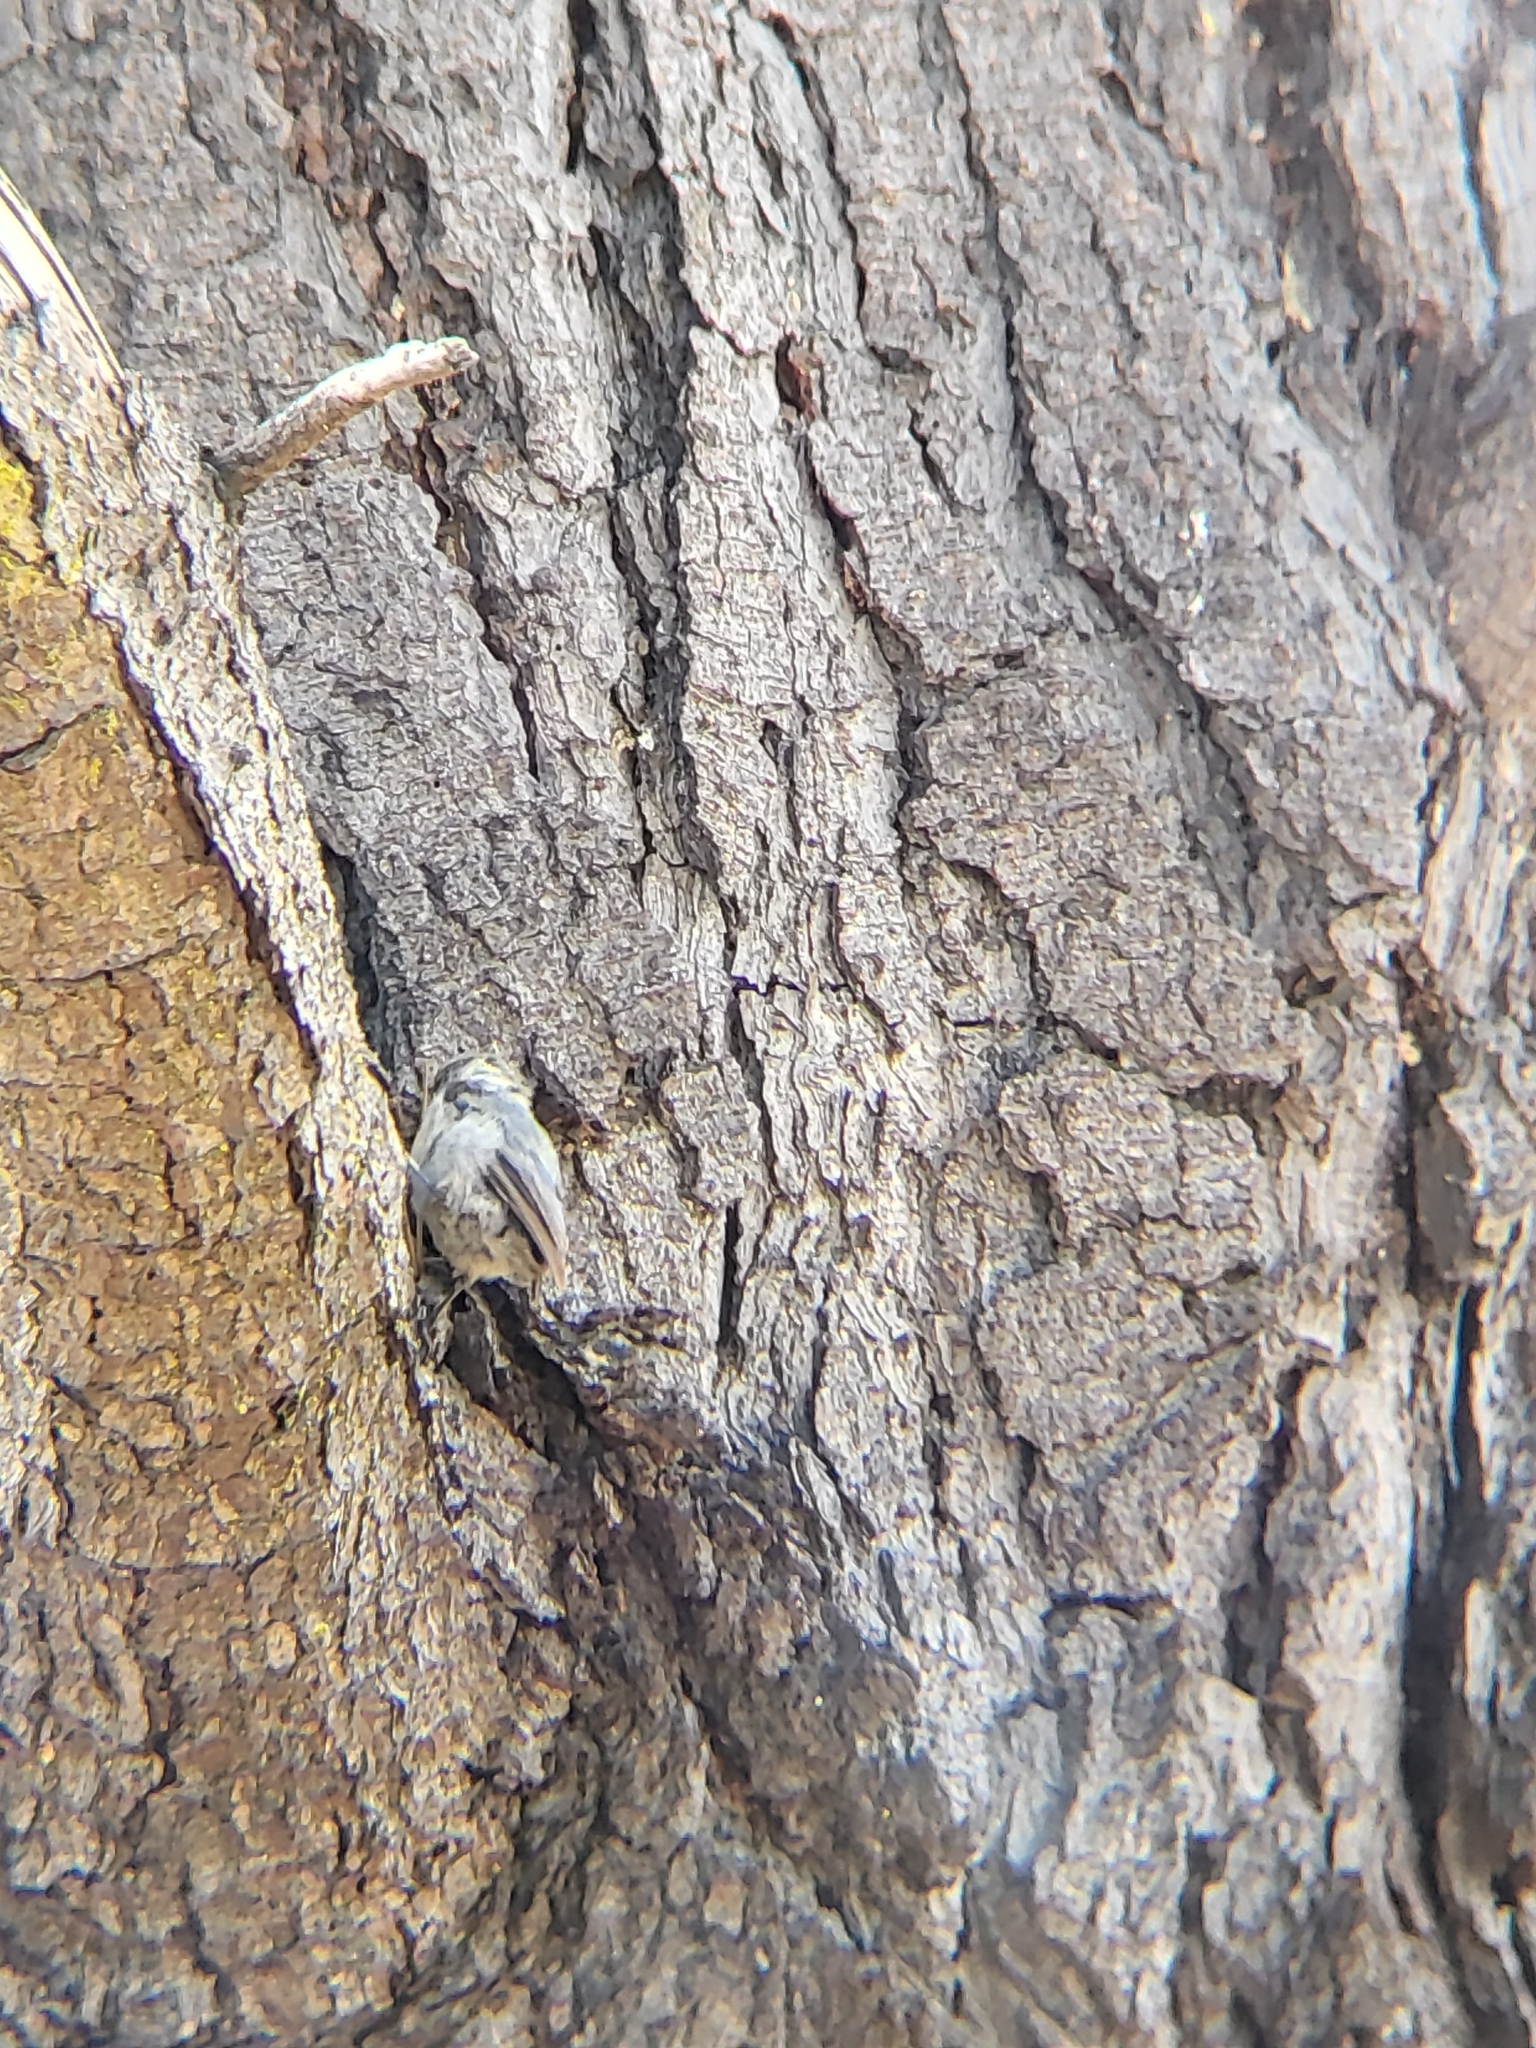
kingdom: Animalia
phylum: Chordata
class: Aves
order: Passeriformes
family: Sittidae
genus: Sitta
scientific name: Sitta pygmaea
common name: Pygmy nuthatch
